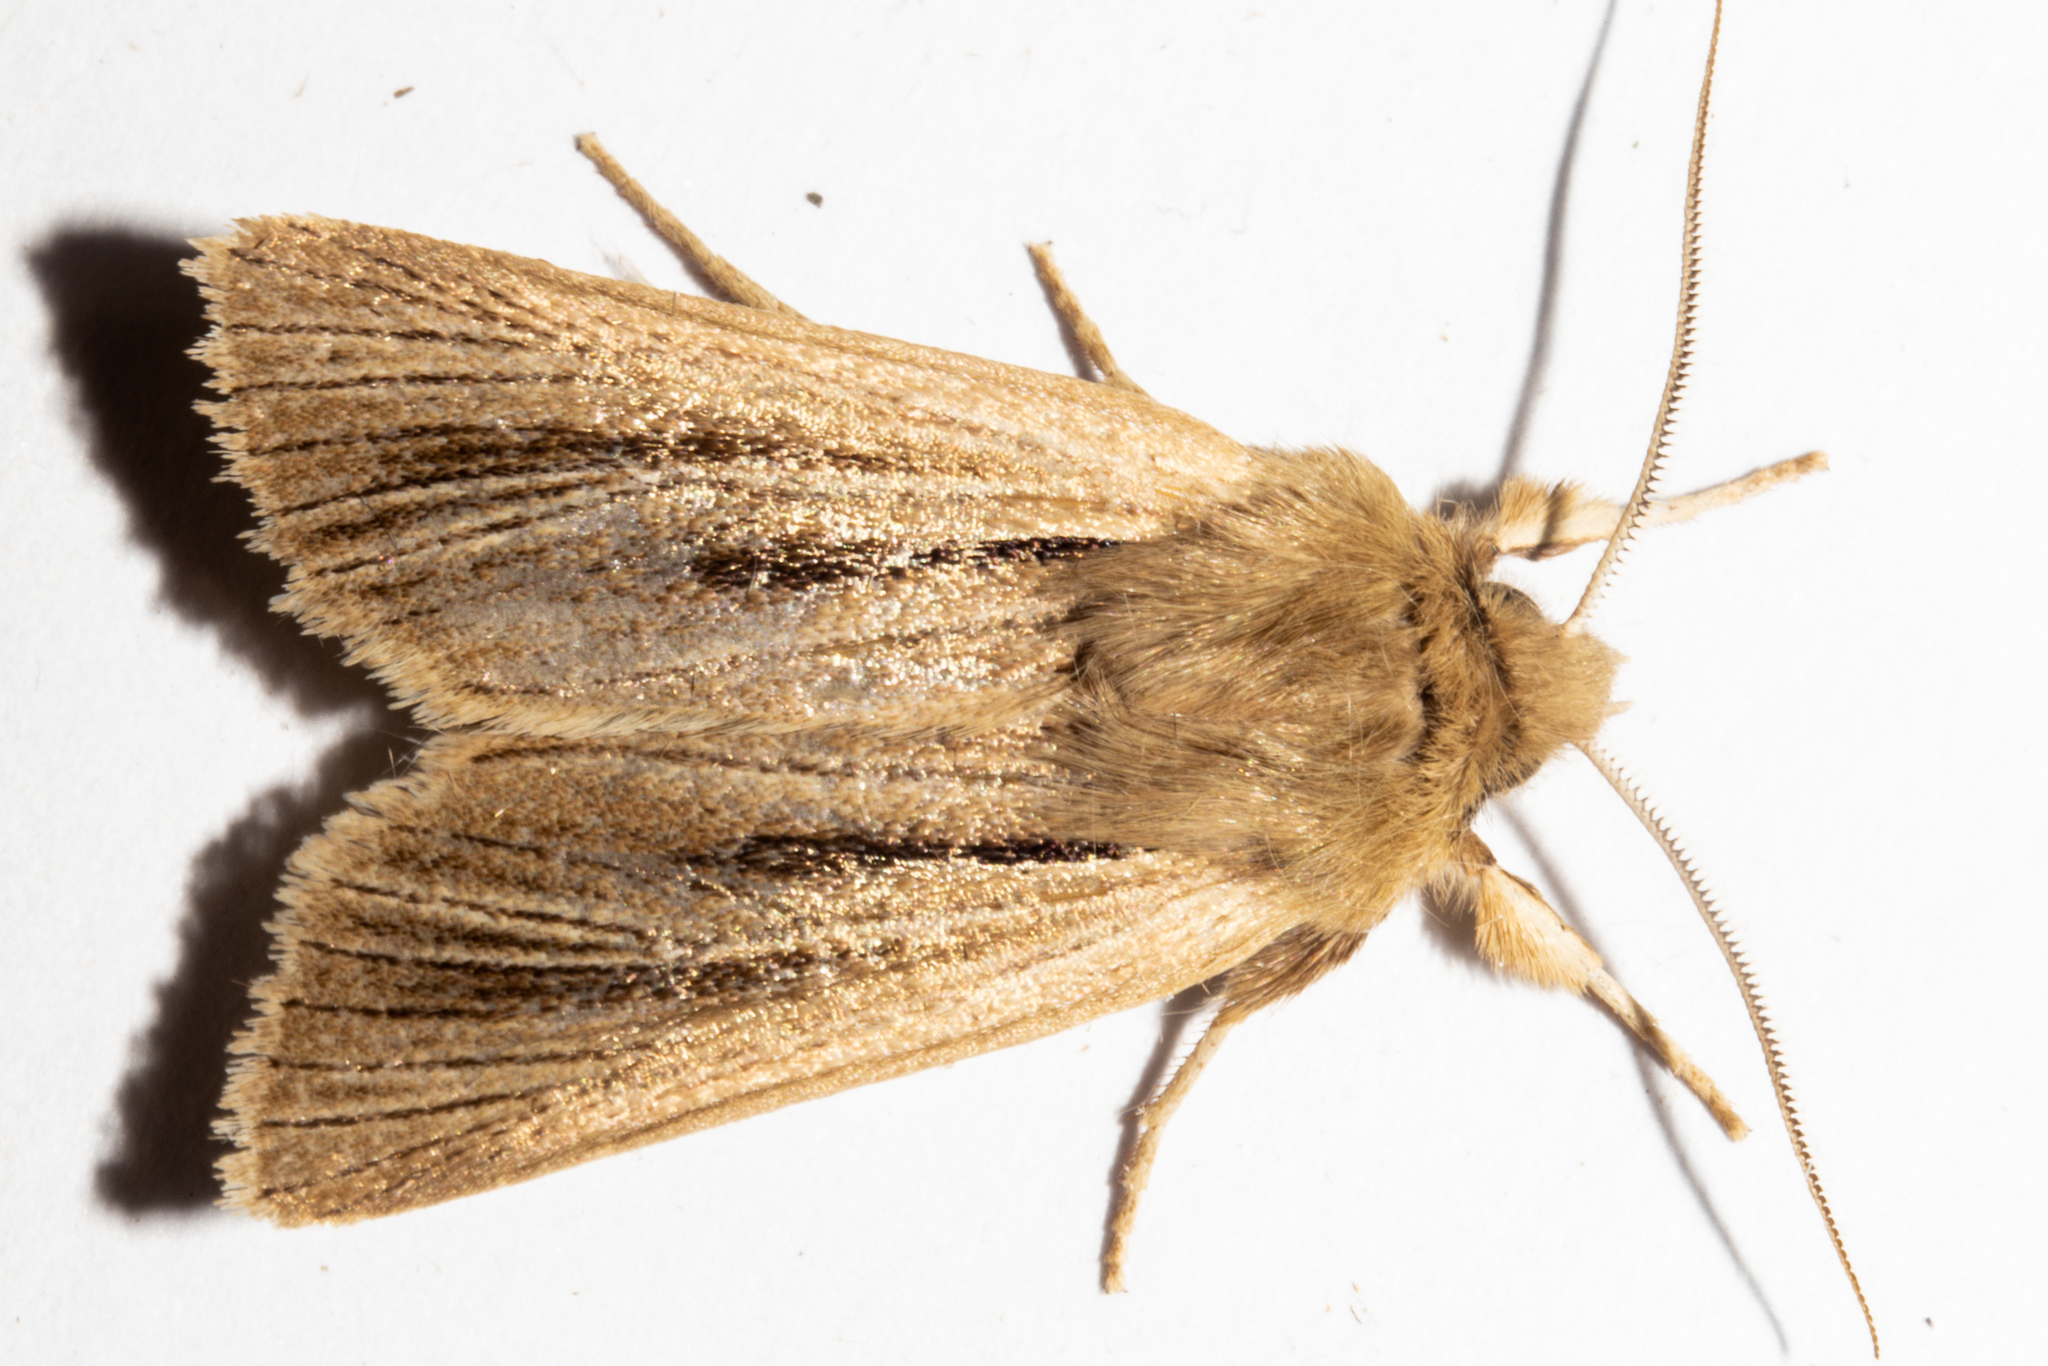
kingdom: Animalia
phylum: Arthropoda
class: Insecta
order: Lepidoptera
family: Noctuidae
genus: Ichneutica
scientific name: Ichneutica
